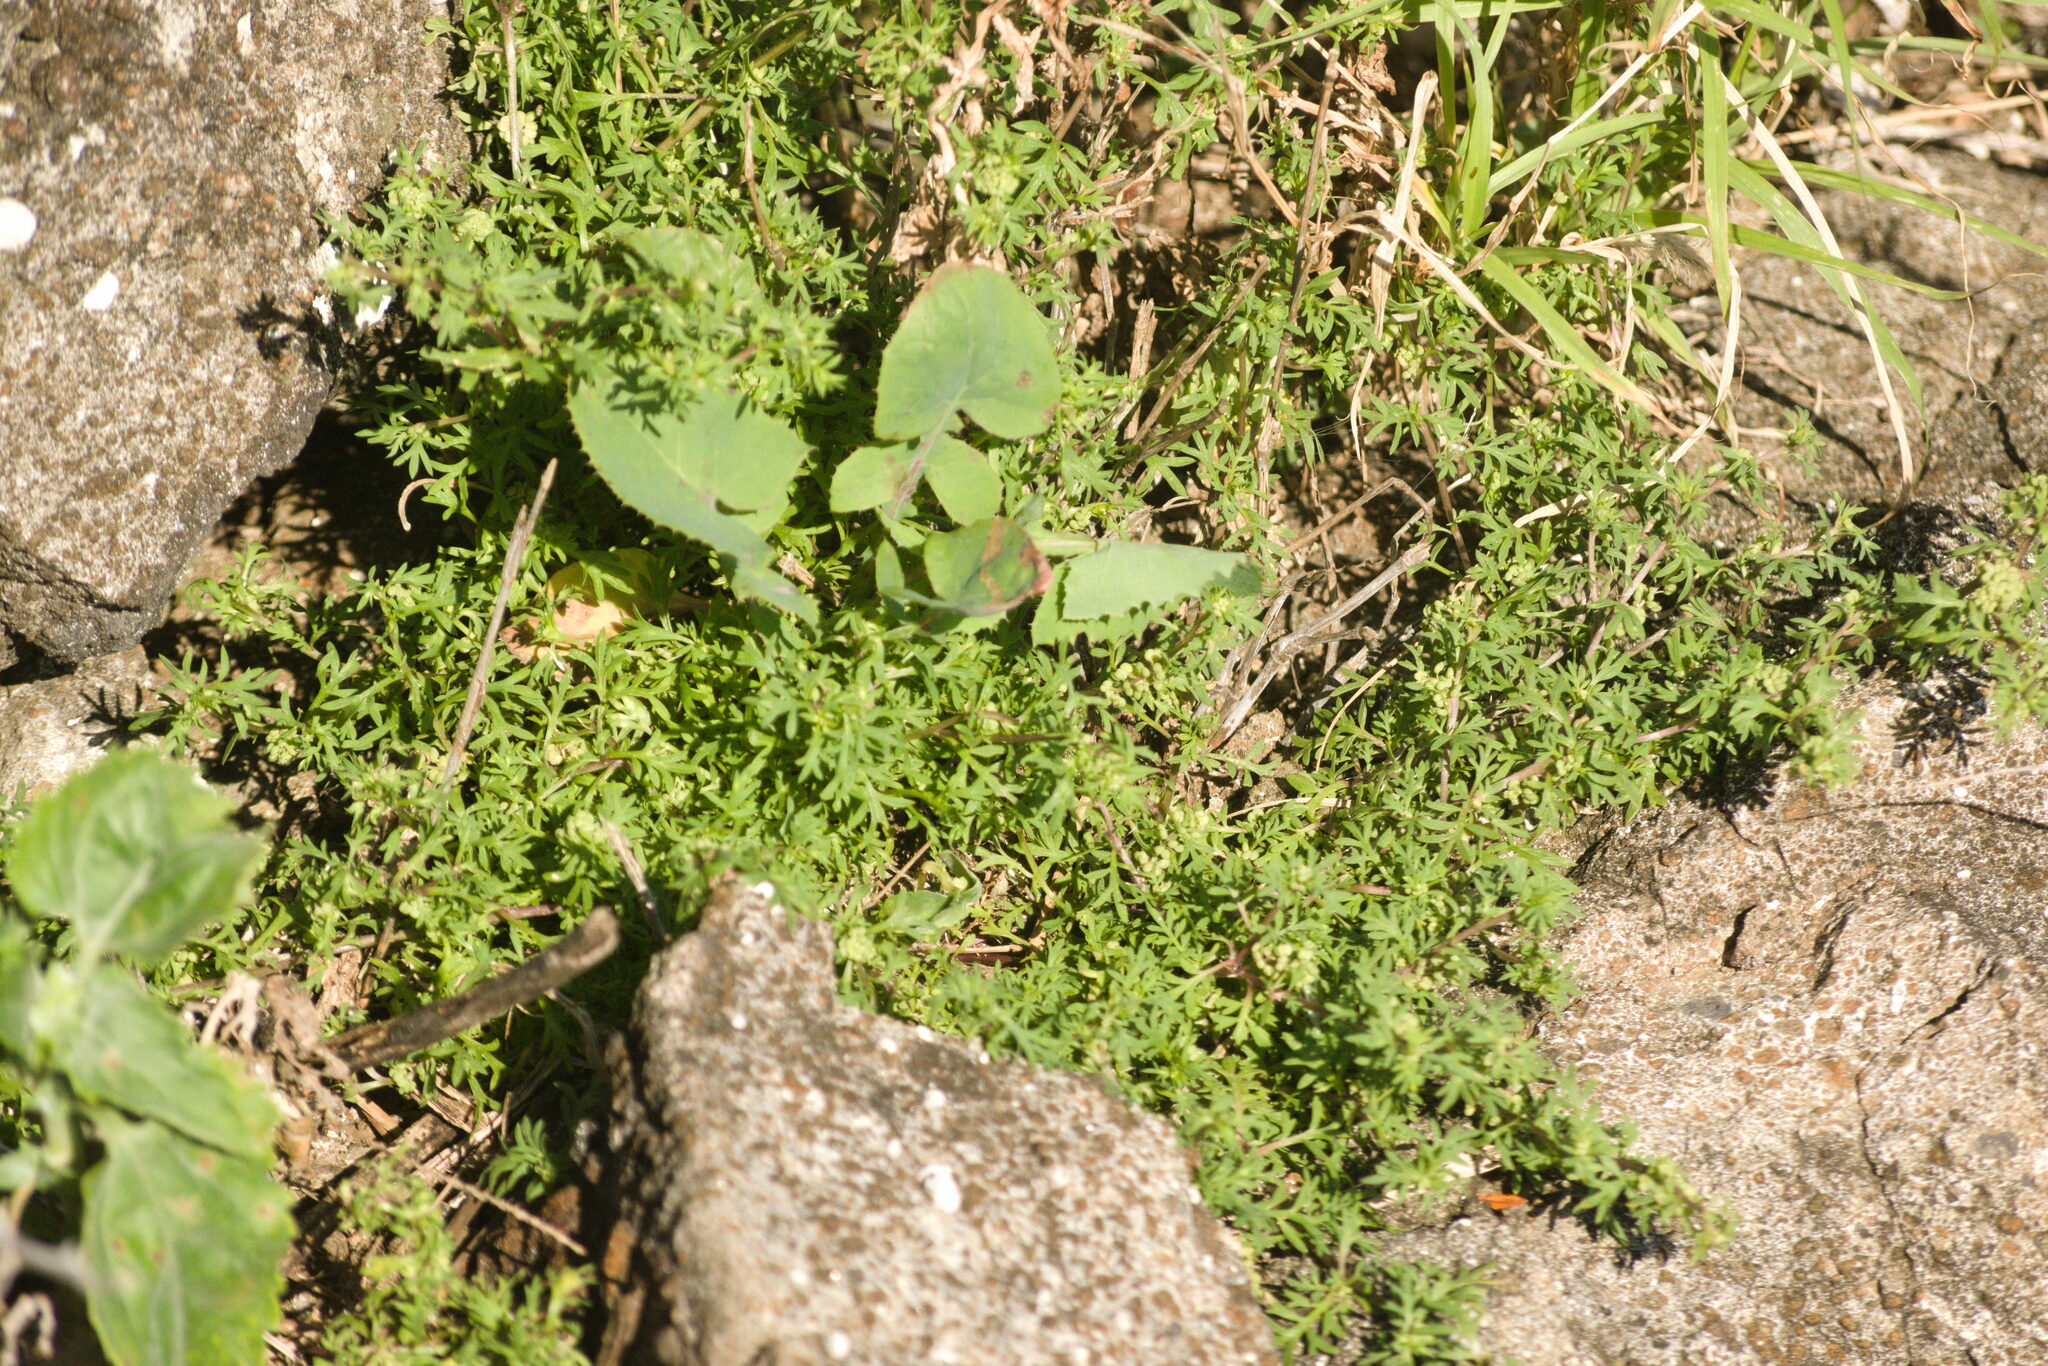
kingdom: Plantae
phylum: Tracheophyta
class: Magnoliopsida
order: Brassicales
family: Brassicaceae
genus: Lepidium
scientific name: Lepidium didymum
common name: Lesser swinecress
